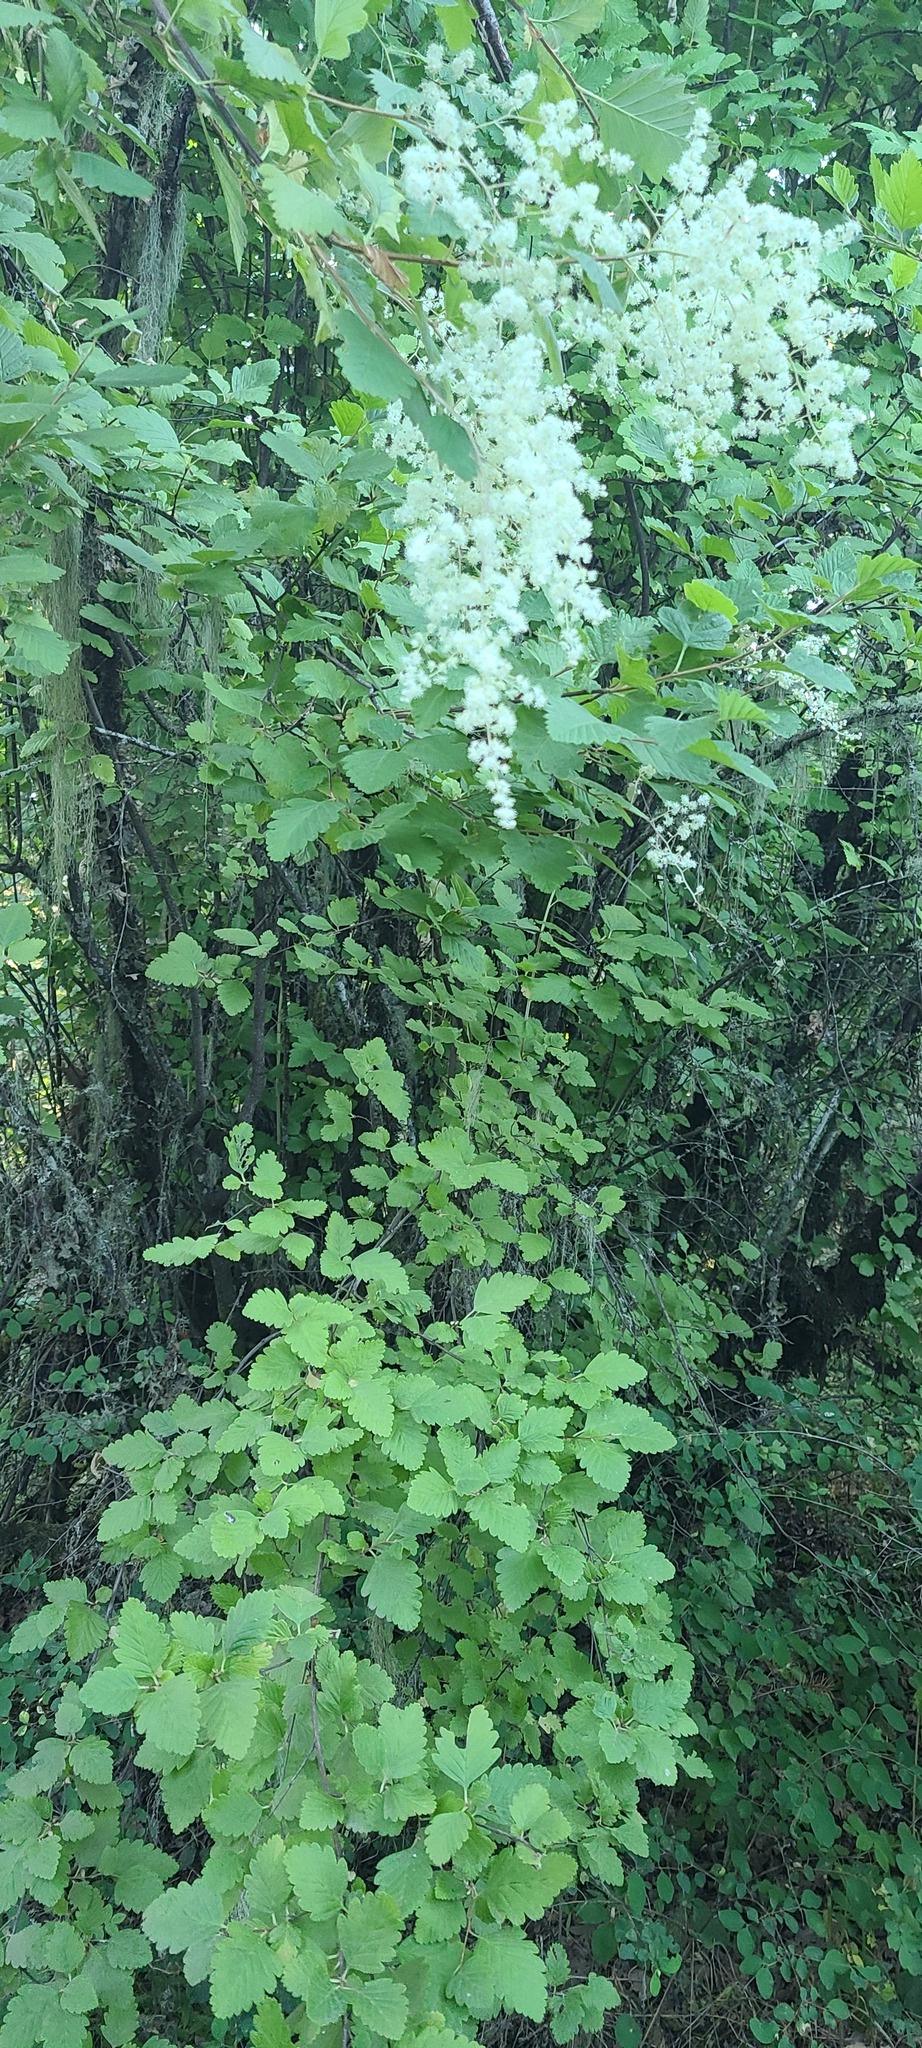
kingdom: Plantae
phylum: Tracheophyta
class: Magnoliopsida
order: Rosales
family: Rosaceae
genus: Holodiscus
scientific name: Holodiscus discolor
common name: Oceanspray
